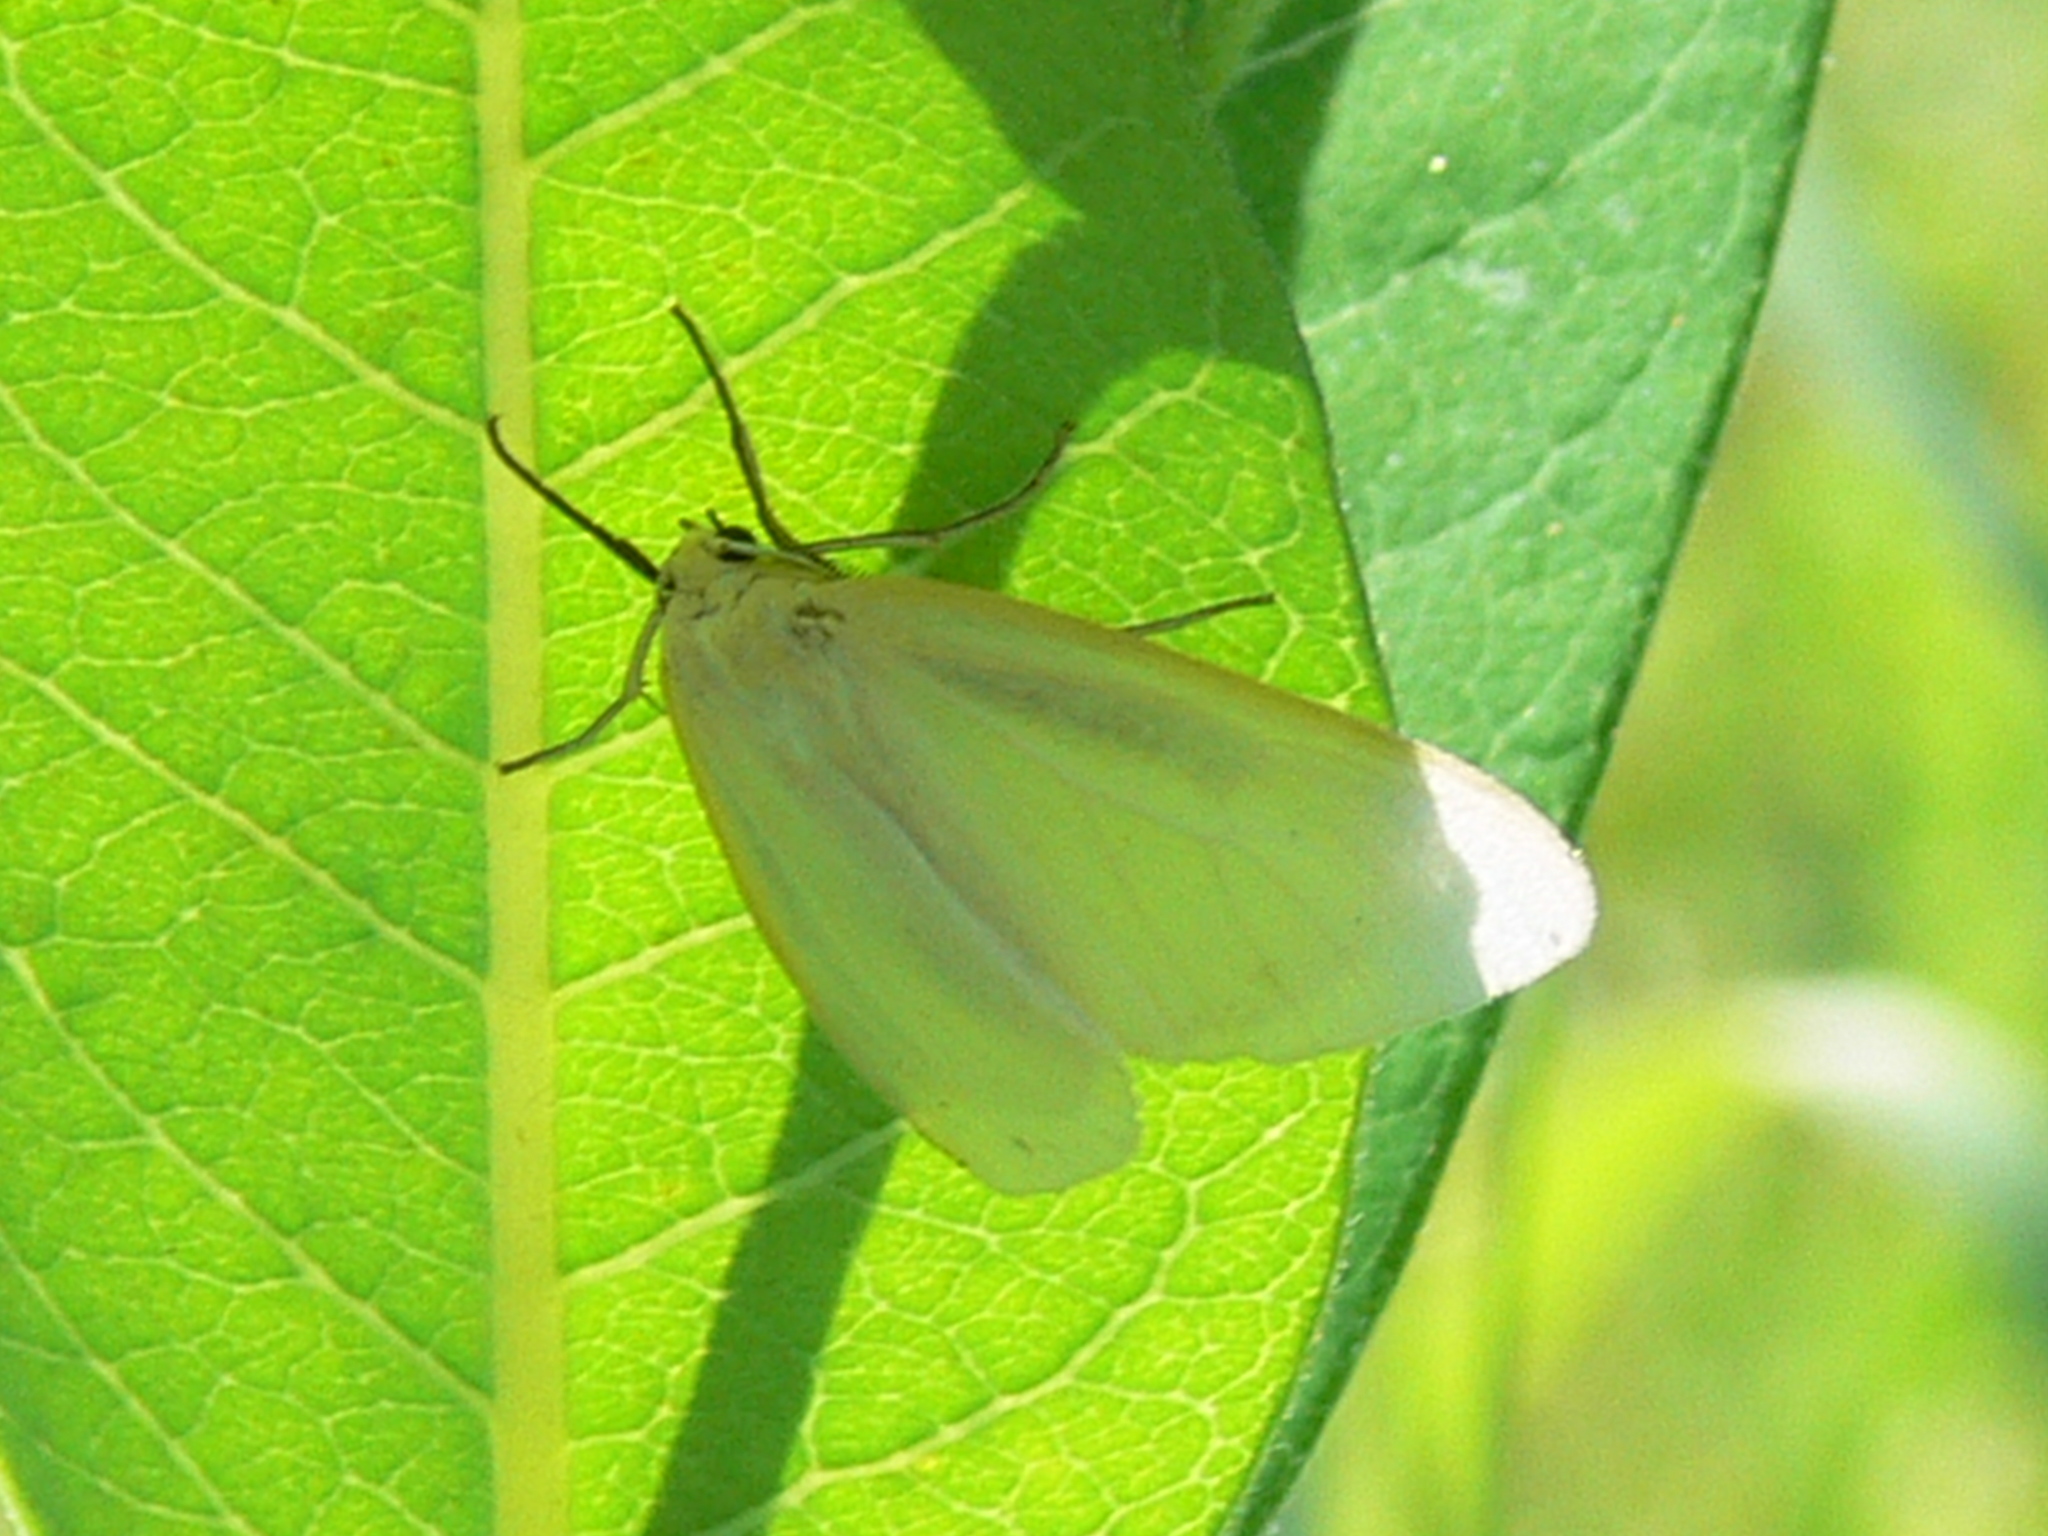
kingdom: Animalia
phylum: Arthropoda
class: Insecta
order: Lepidoptera
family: Erebidae
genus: Cycnia
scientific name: Cycnia tenera
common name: Delicate cycnia moth
